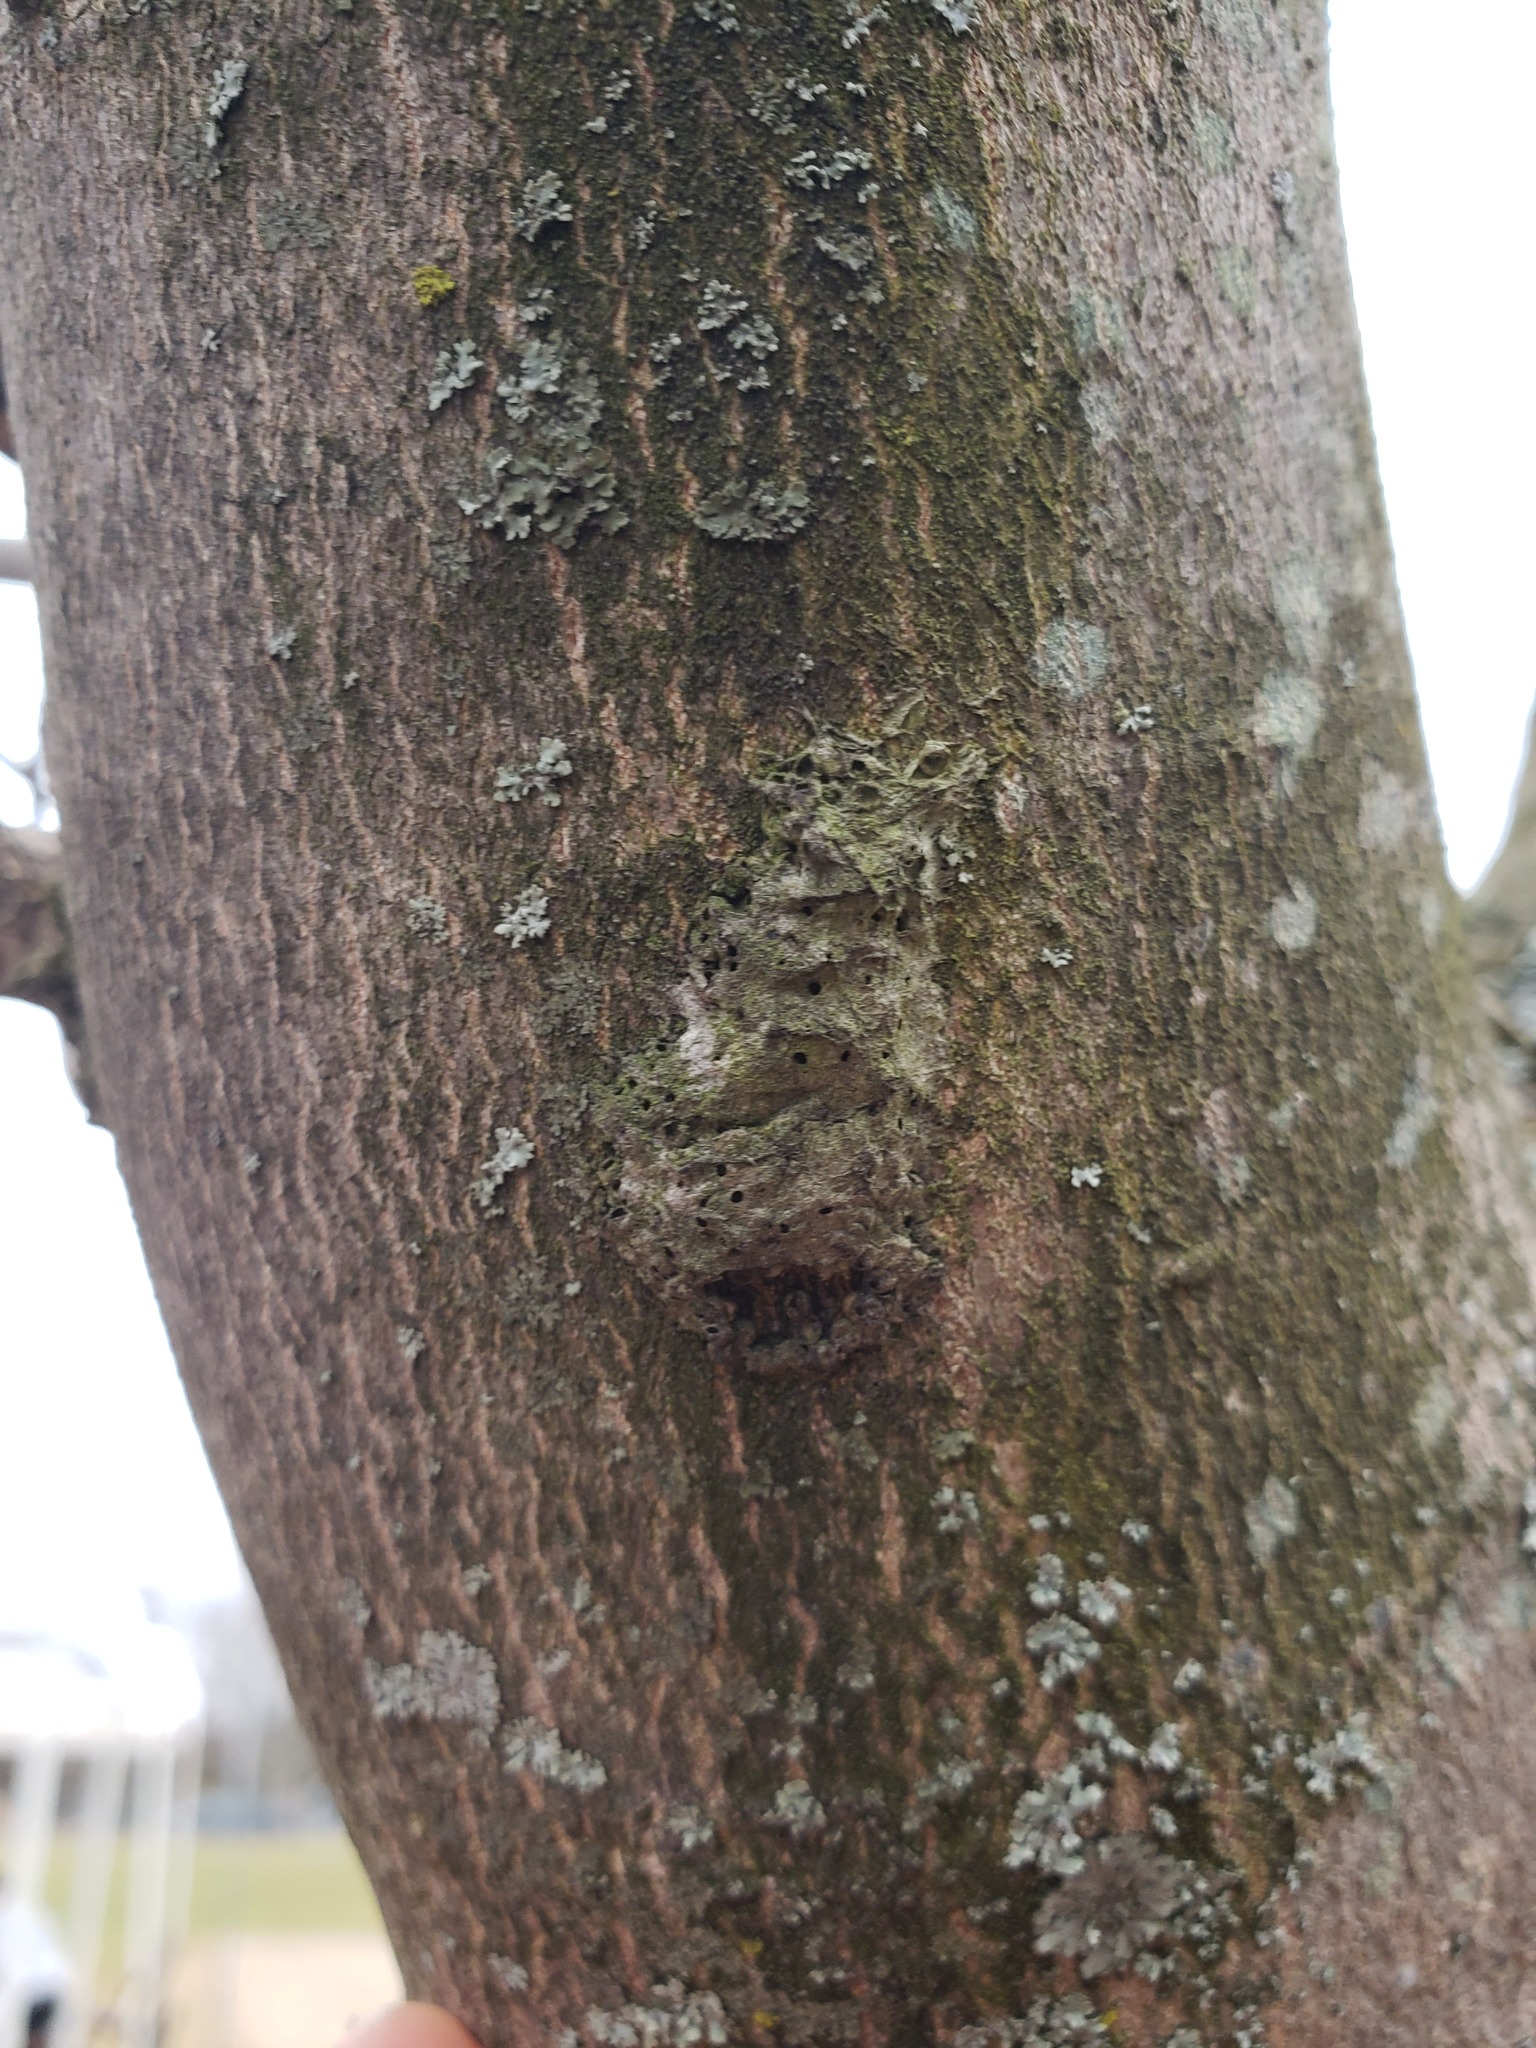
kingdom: Animalia
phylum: Arthropoda
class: Insecta
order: Lepidoptera
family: Erebidae
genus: Lymantria
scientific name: Lymantria dispar
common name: Gypsy moth
